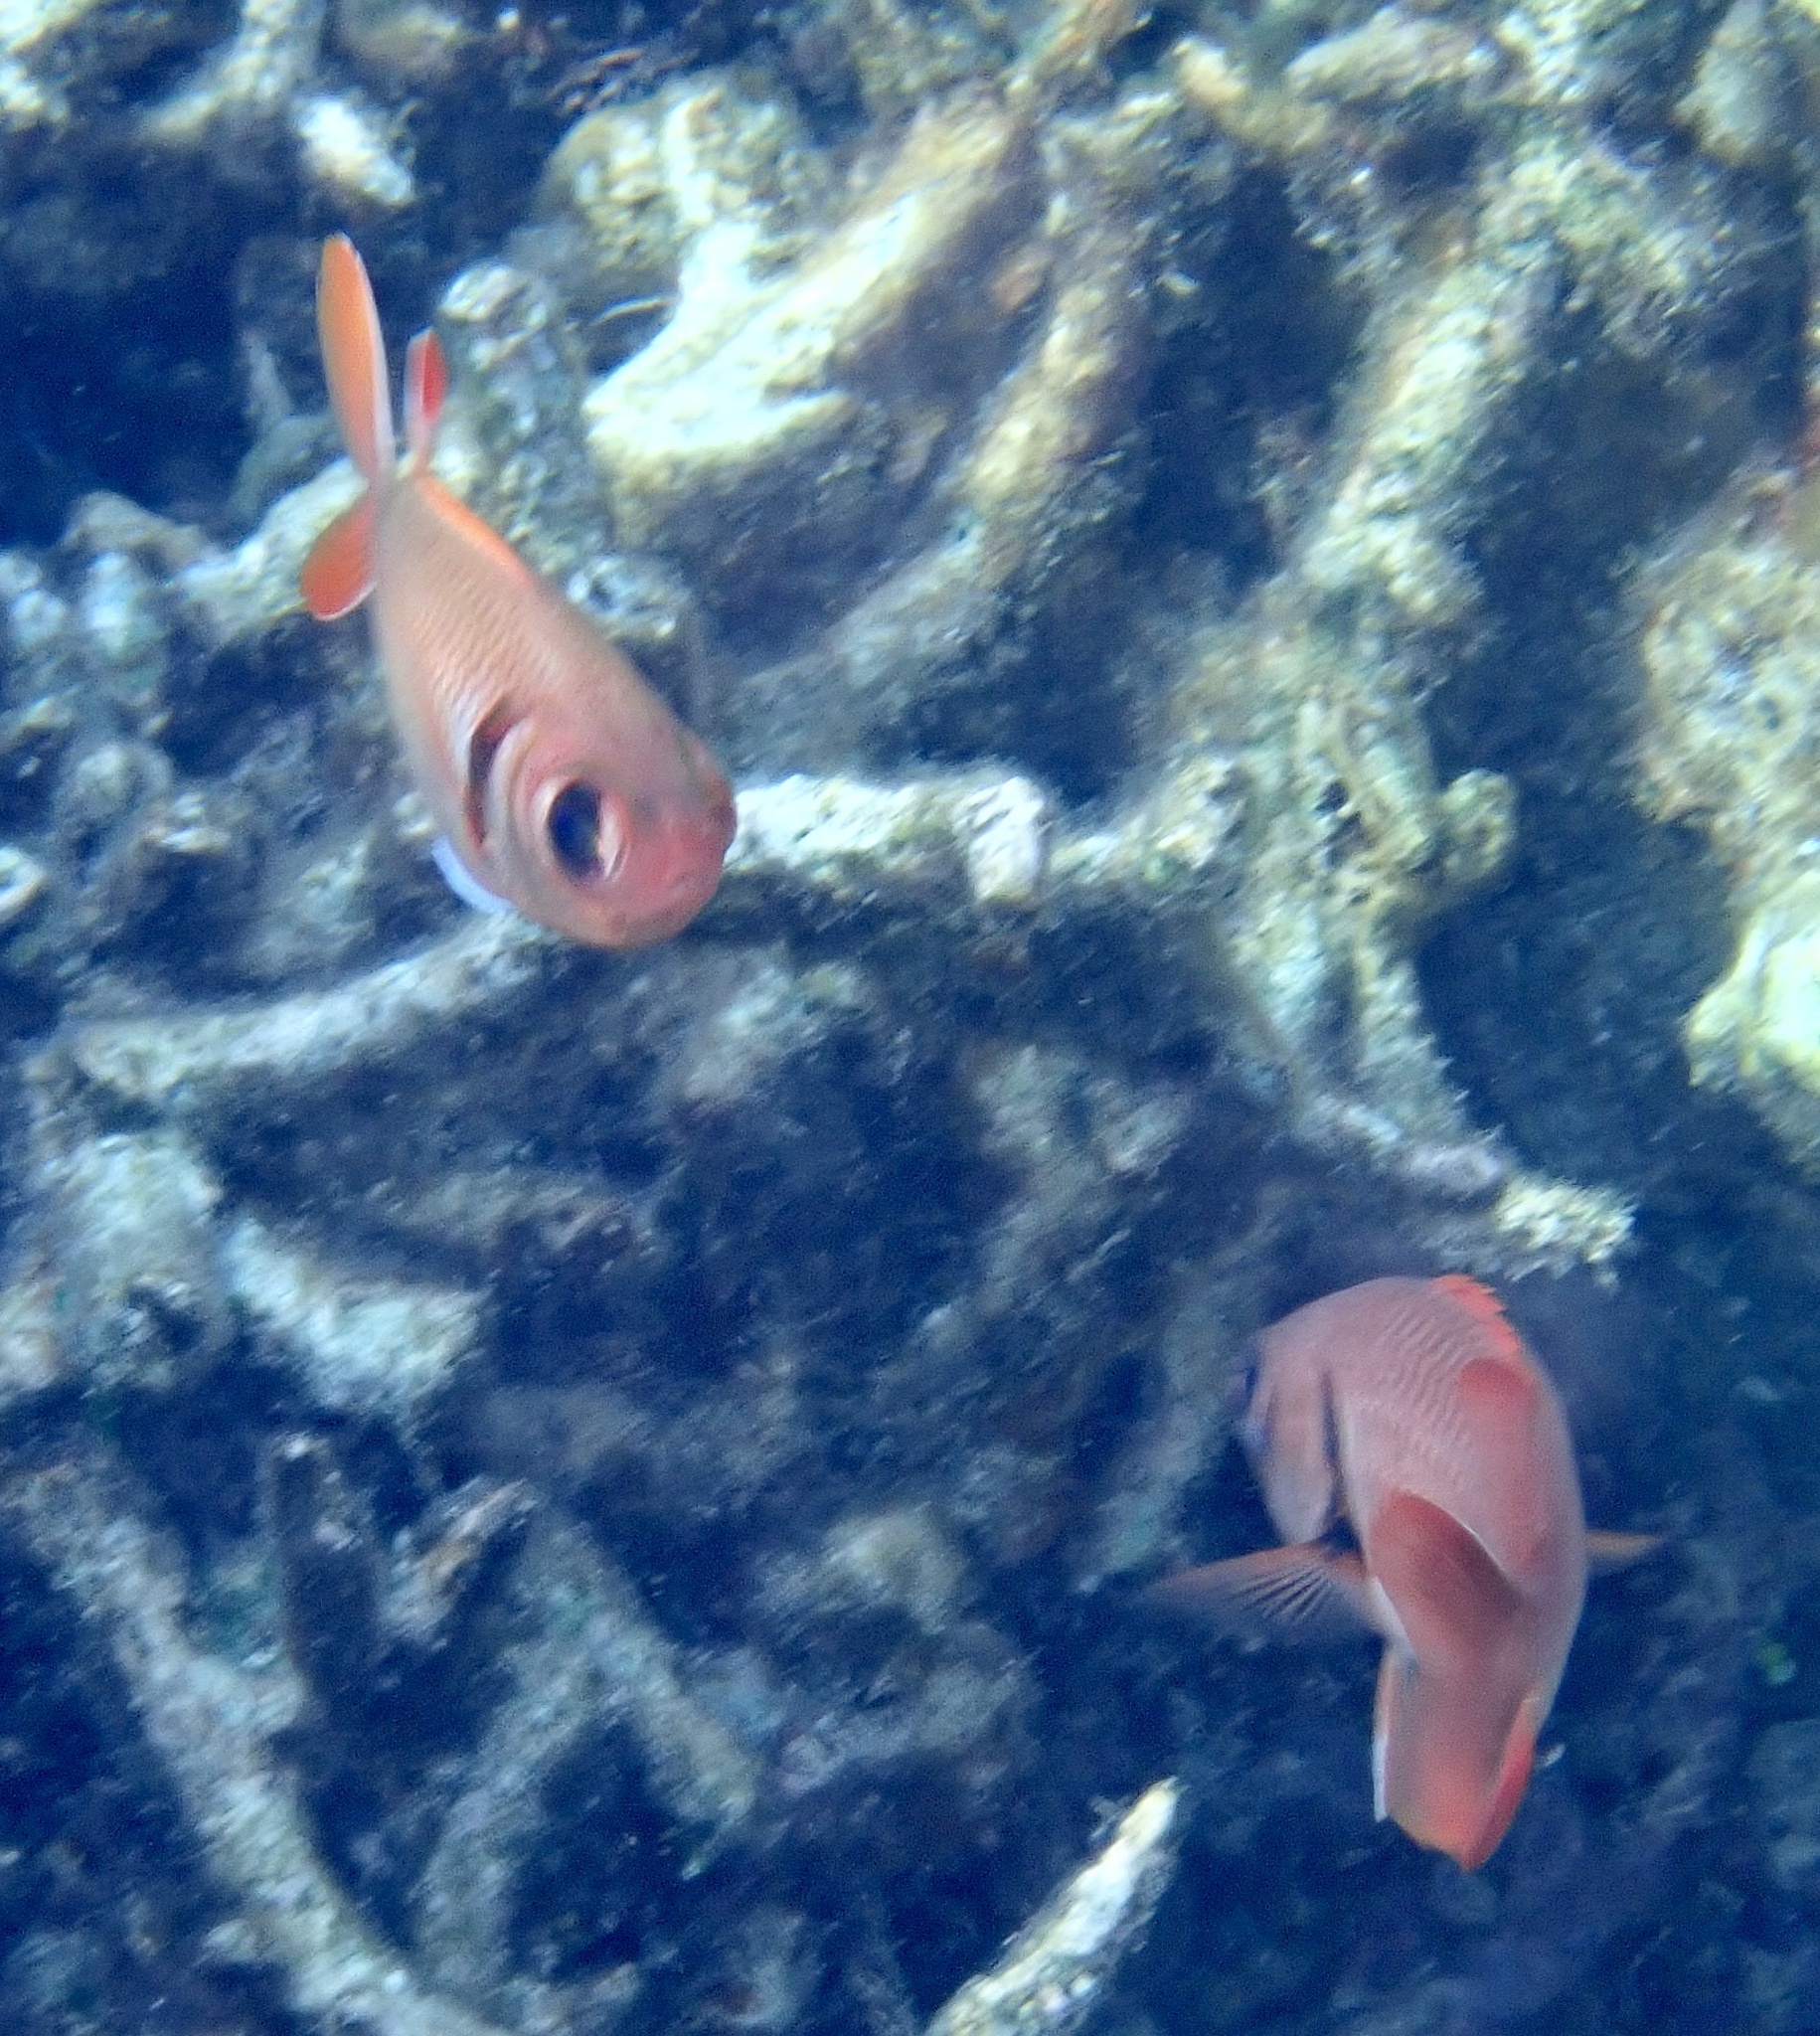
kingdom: Animalia
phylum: Chordata
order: Beryciformes
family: Holocentridae
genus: Myripristis
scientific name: Myripristis kuntee
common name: Epaulette soldierfish
